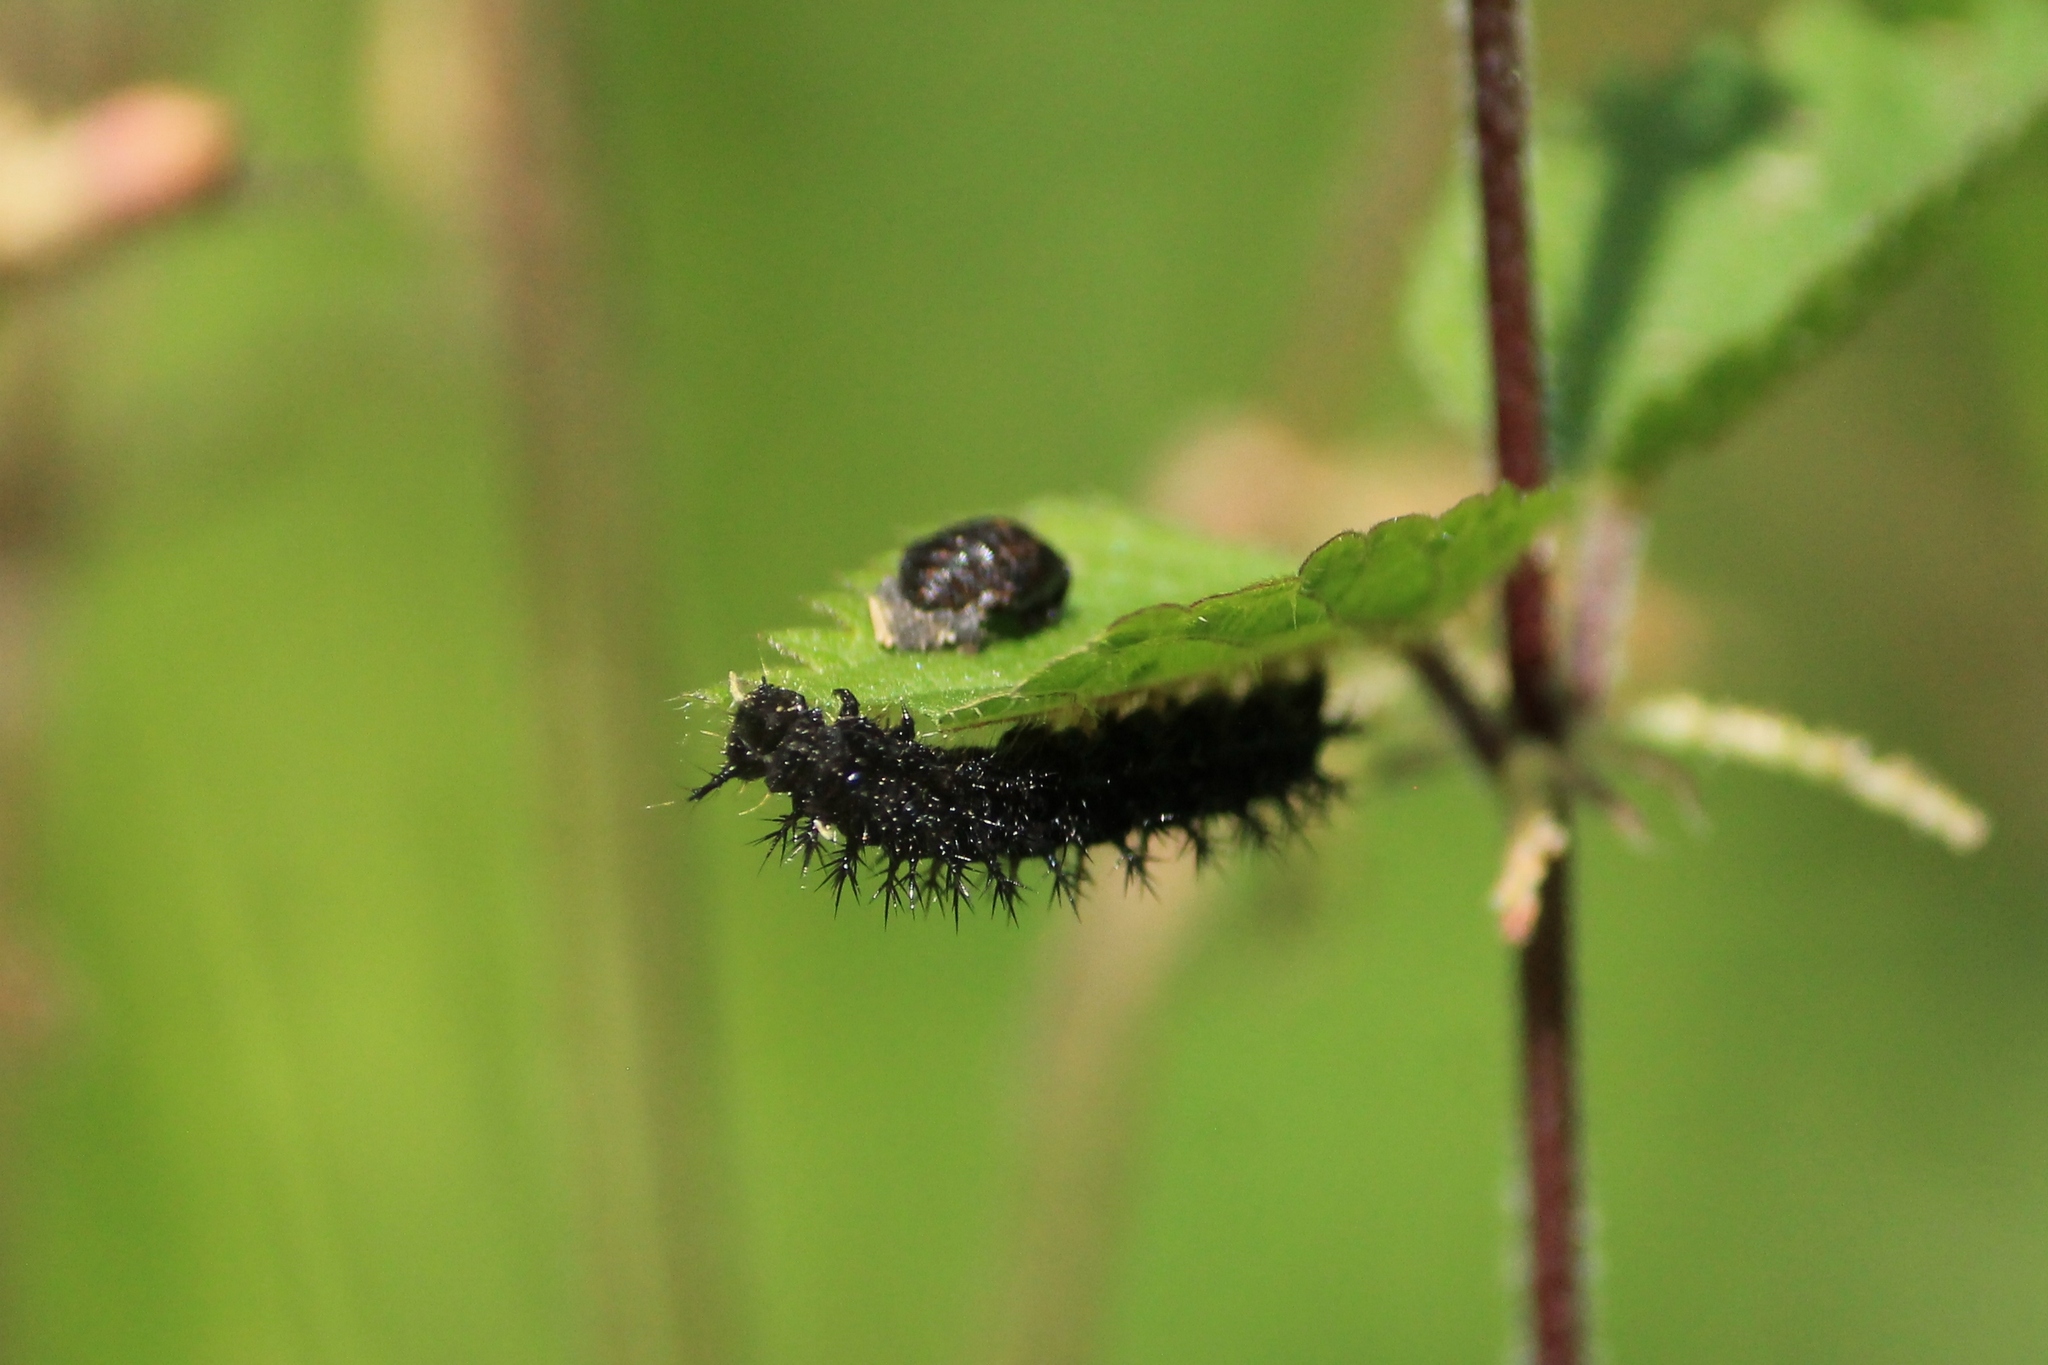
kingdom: Animalia
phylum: Arthropoda
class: Insecta
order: Lepidoptera
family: Nymphalidae
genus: Araschnia
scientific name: Araschnia levana
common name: Map butterfly
